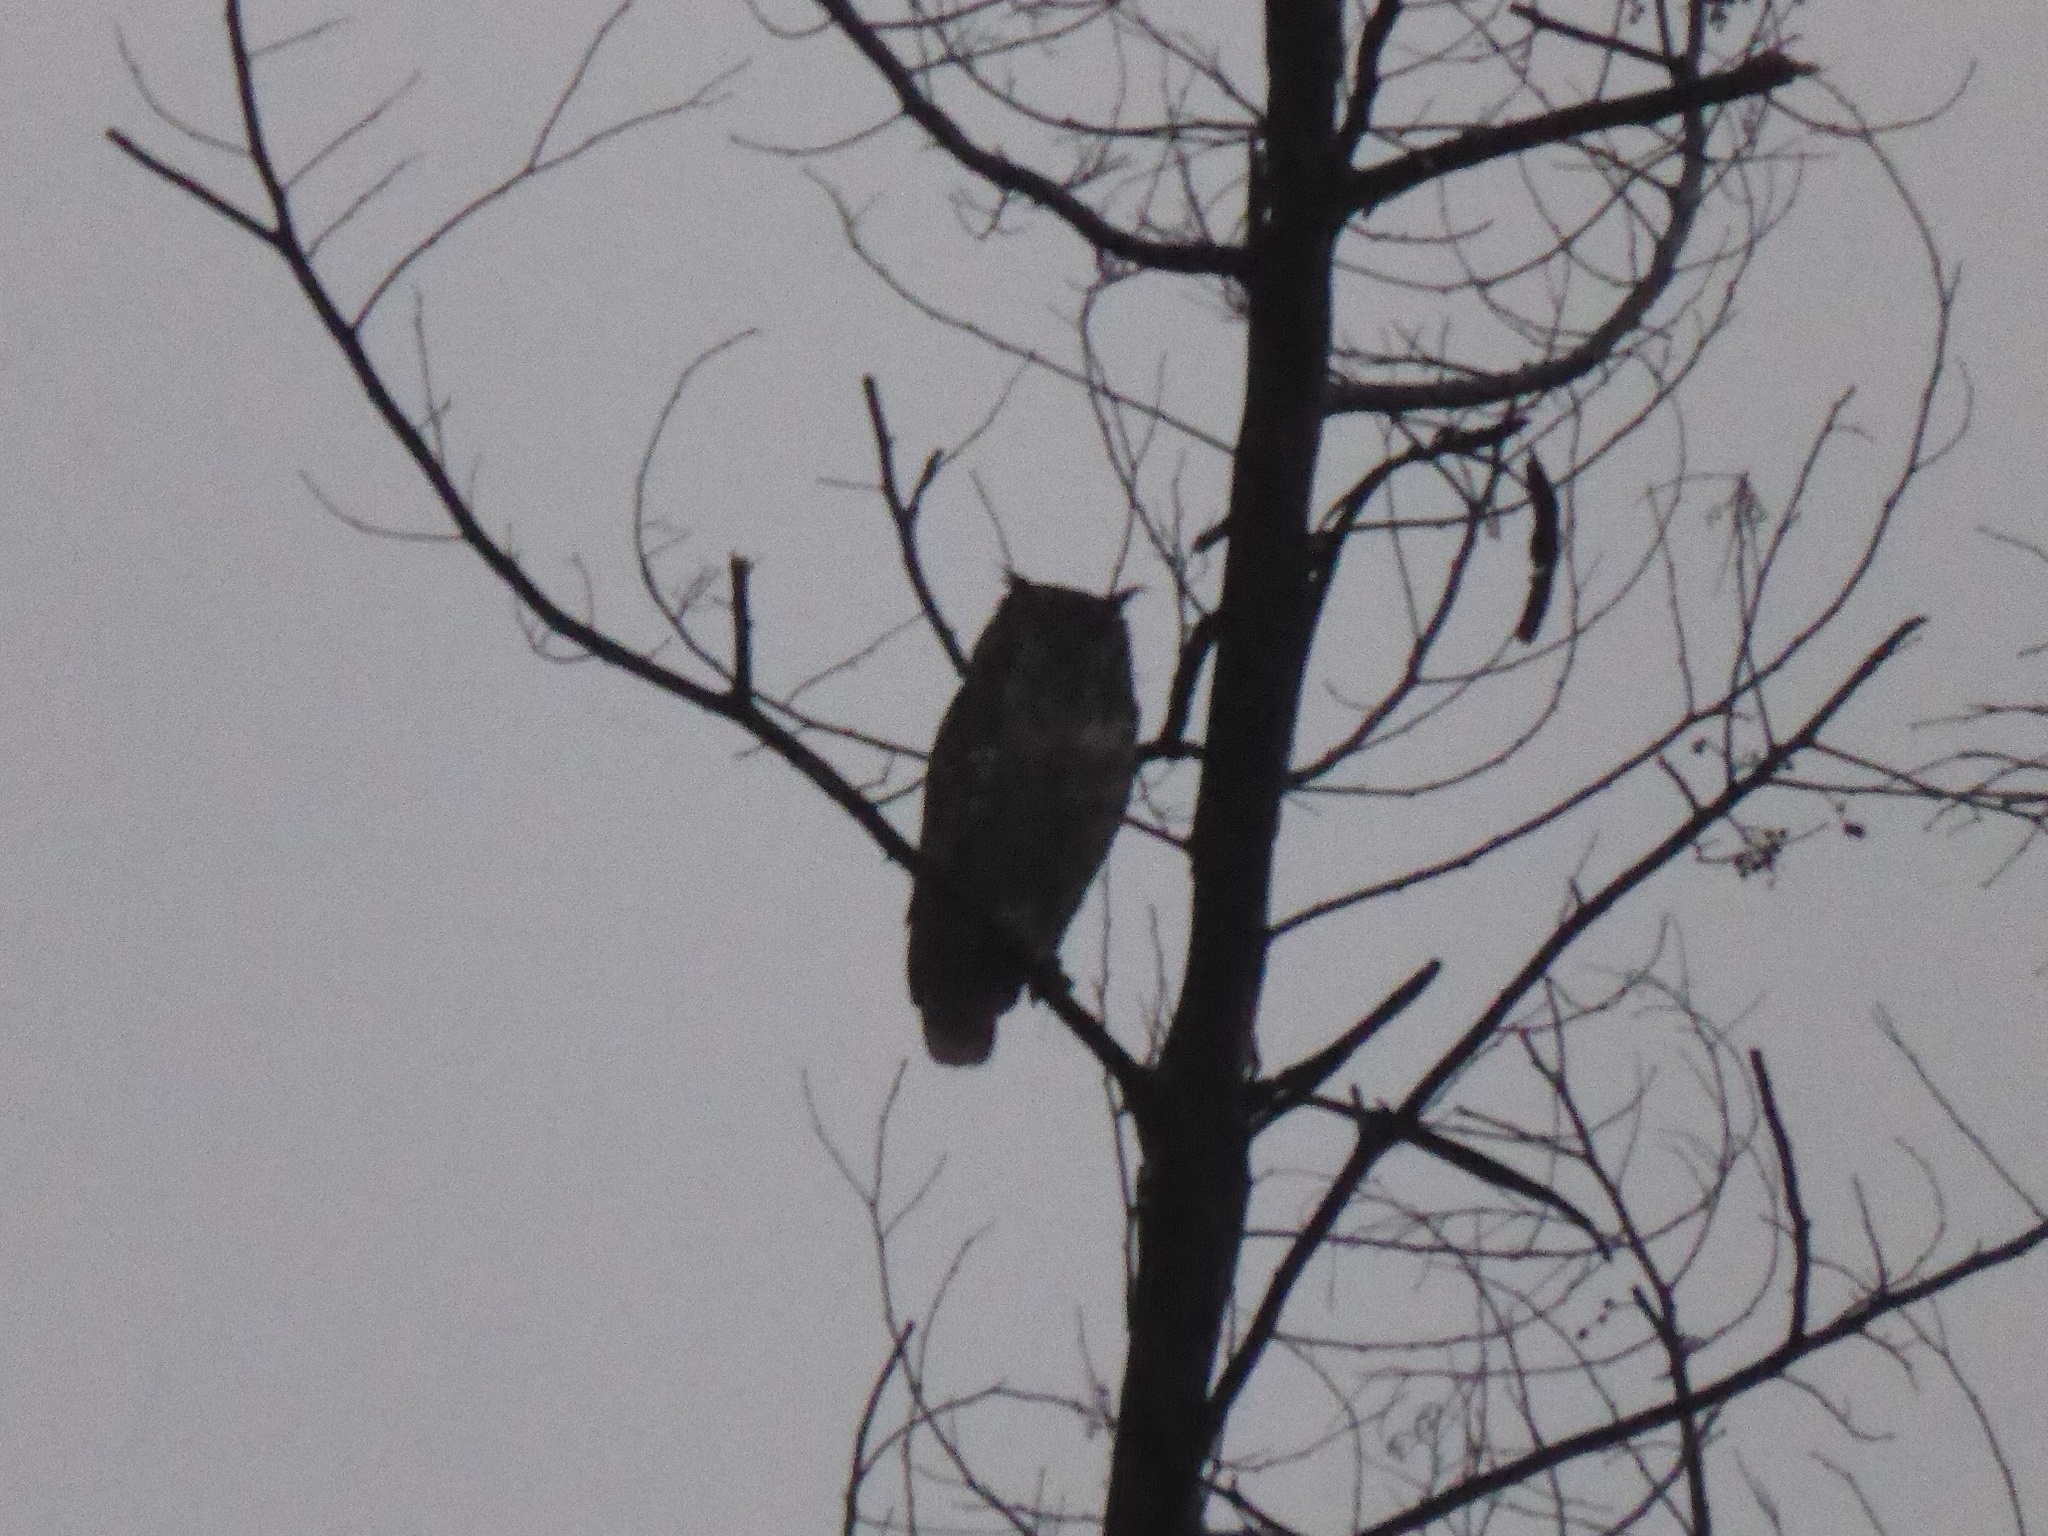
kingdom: Animalia
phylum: Chordata
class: Aves
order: Strigiformes
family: Strigidae
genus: Bubo
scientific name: Bubo africanus
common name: Spotted eagle-owl
